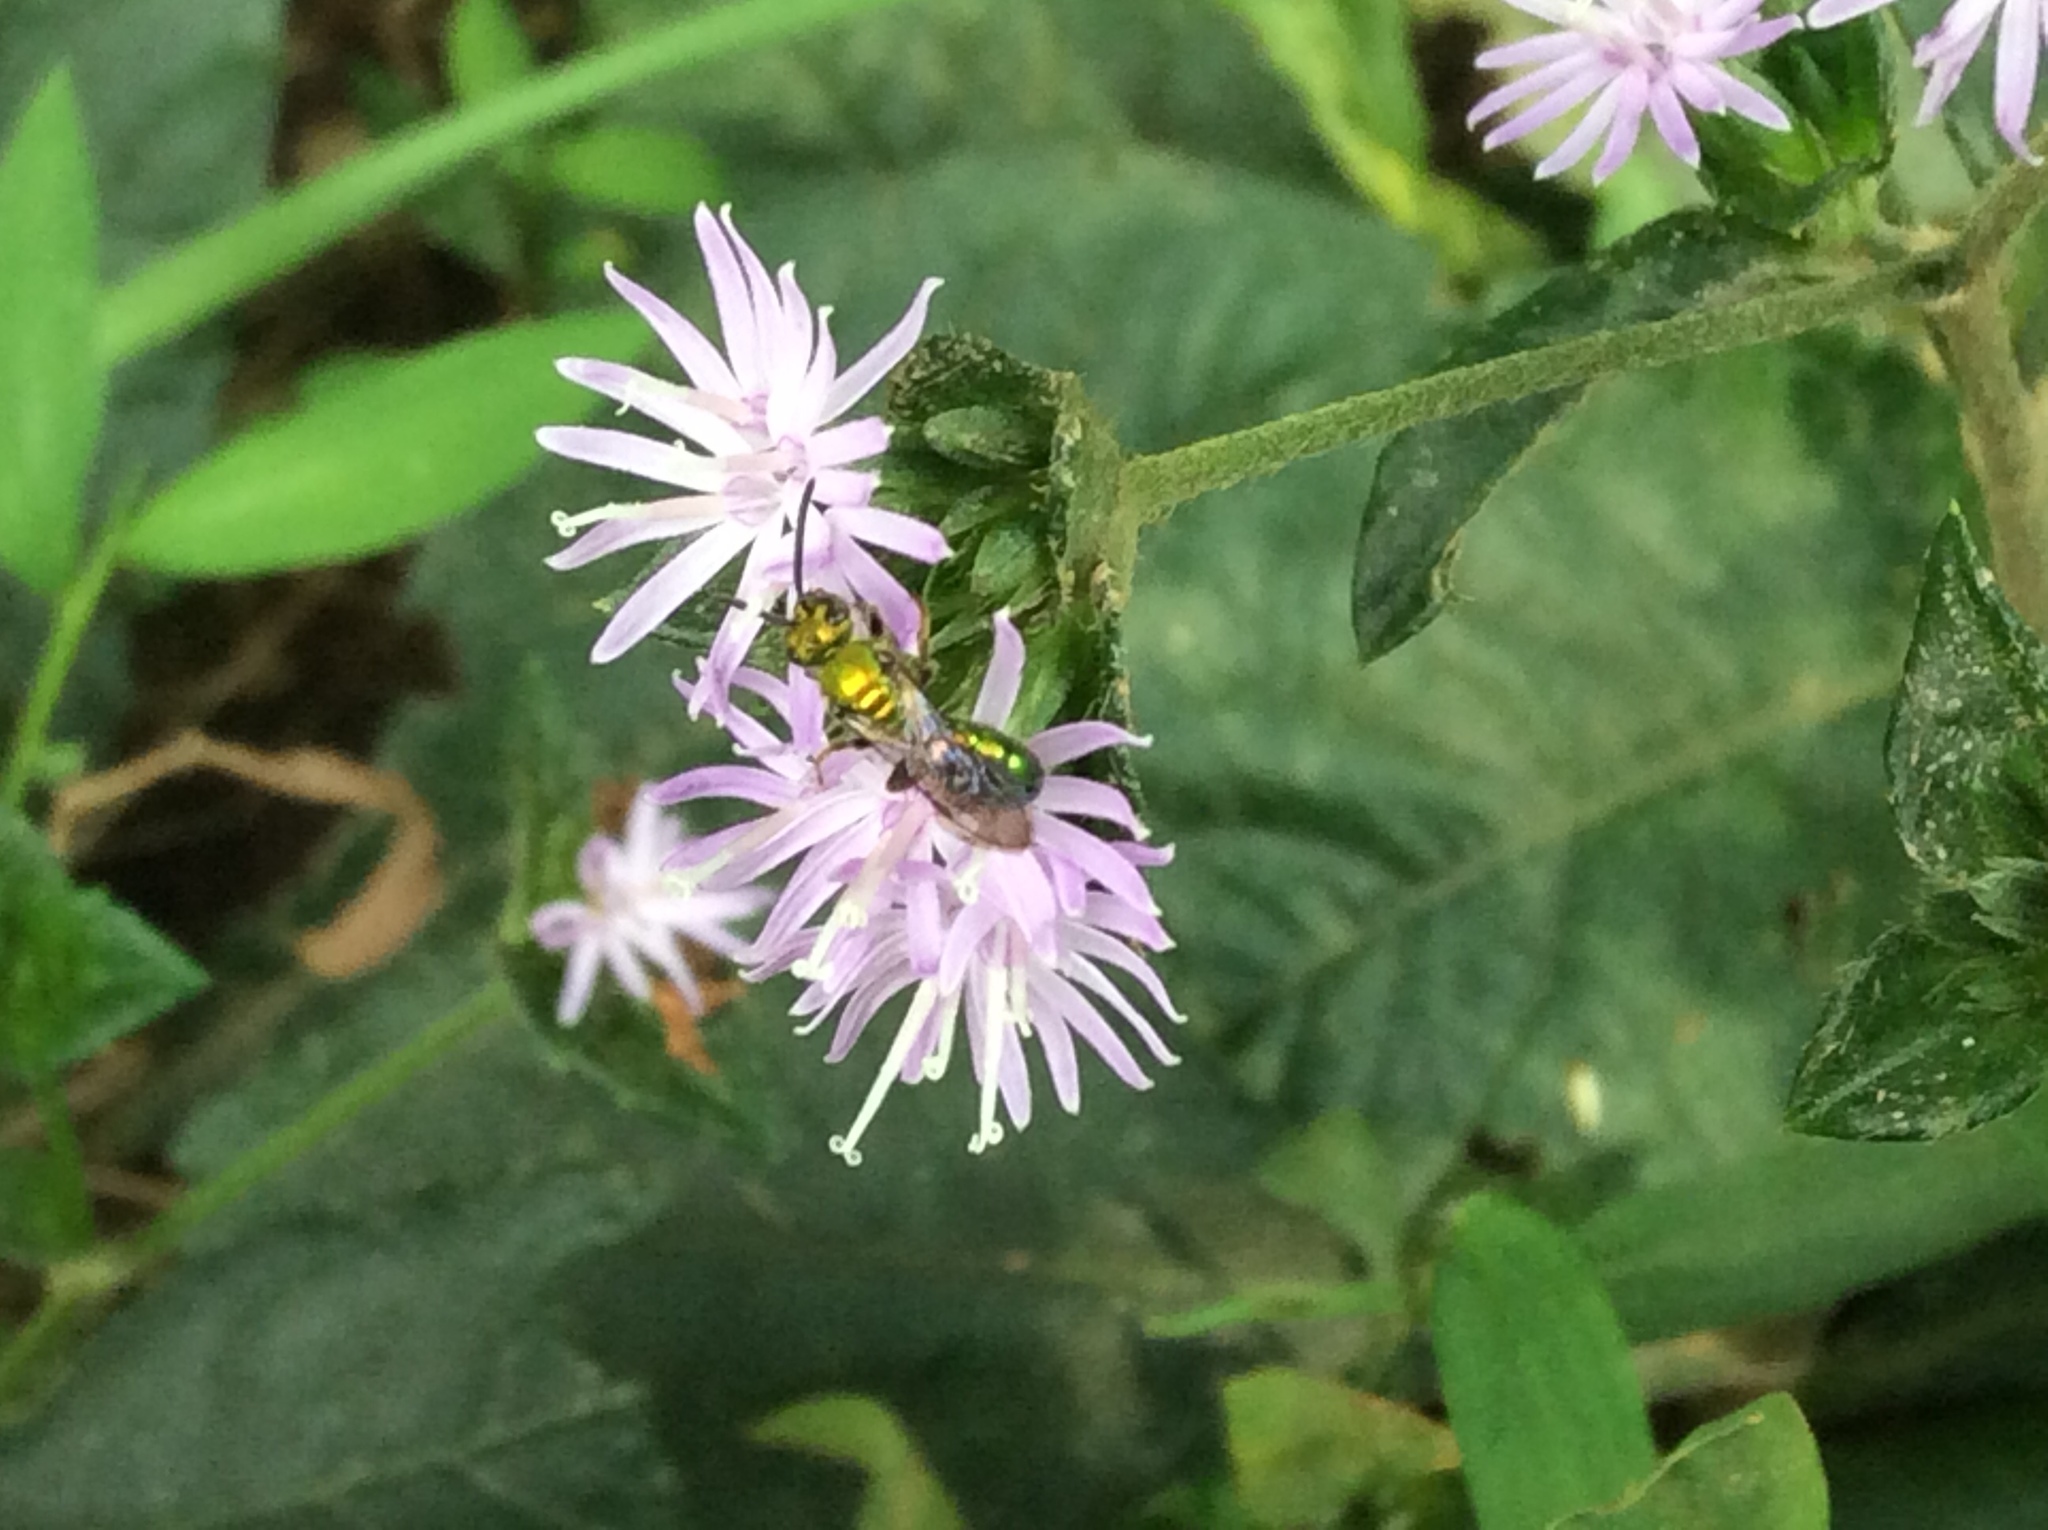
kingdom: Animalia
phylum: Arthropoda
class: Insecta
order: Hymenoptera
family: Halictidae
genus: Augochlora
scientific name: Augochlora pura
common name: Pure green sweat bee
